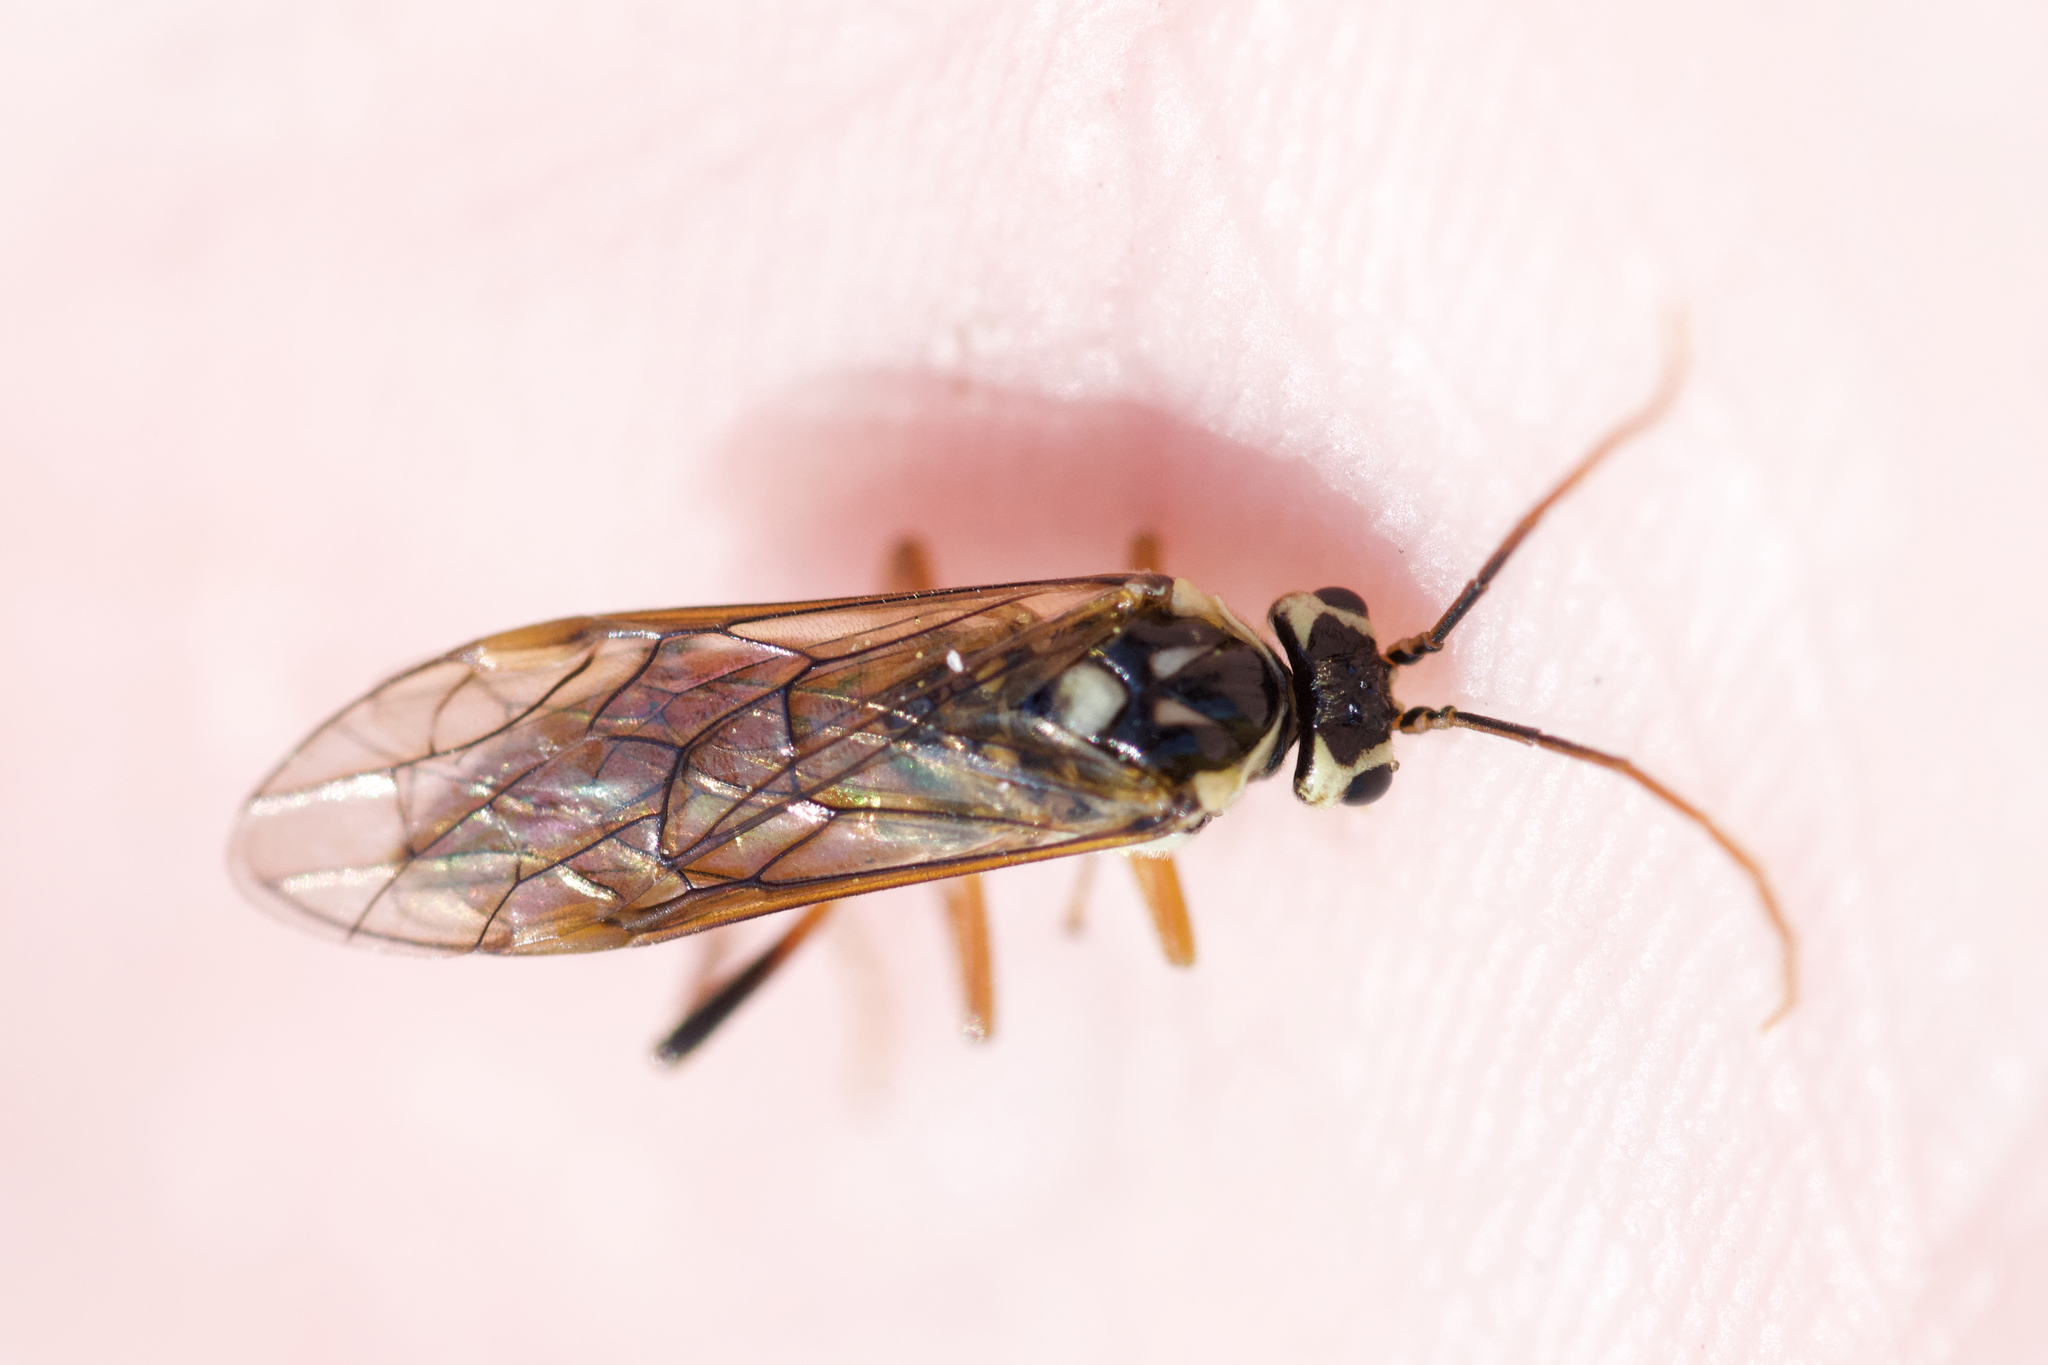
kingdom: Animalia
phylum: Arthropoda
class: Insecta
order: Hymenoptera
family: Tenthredinidae
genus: Aglaostigma
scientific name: Aglaostigma
